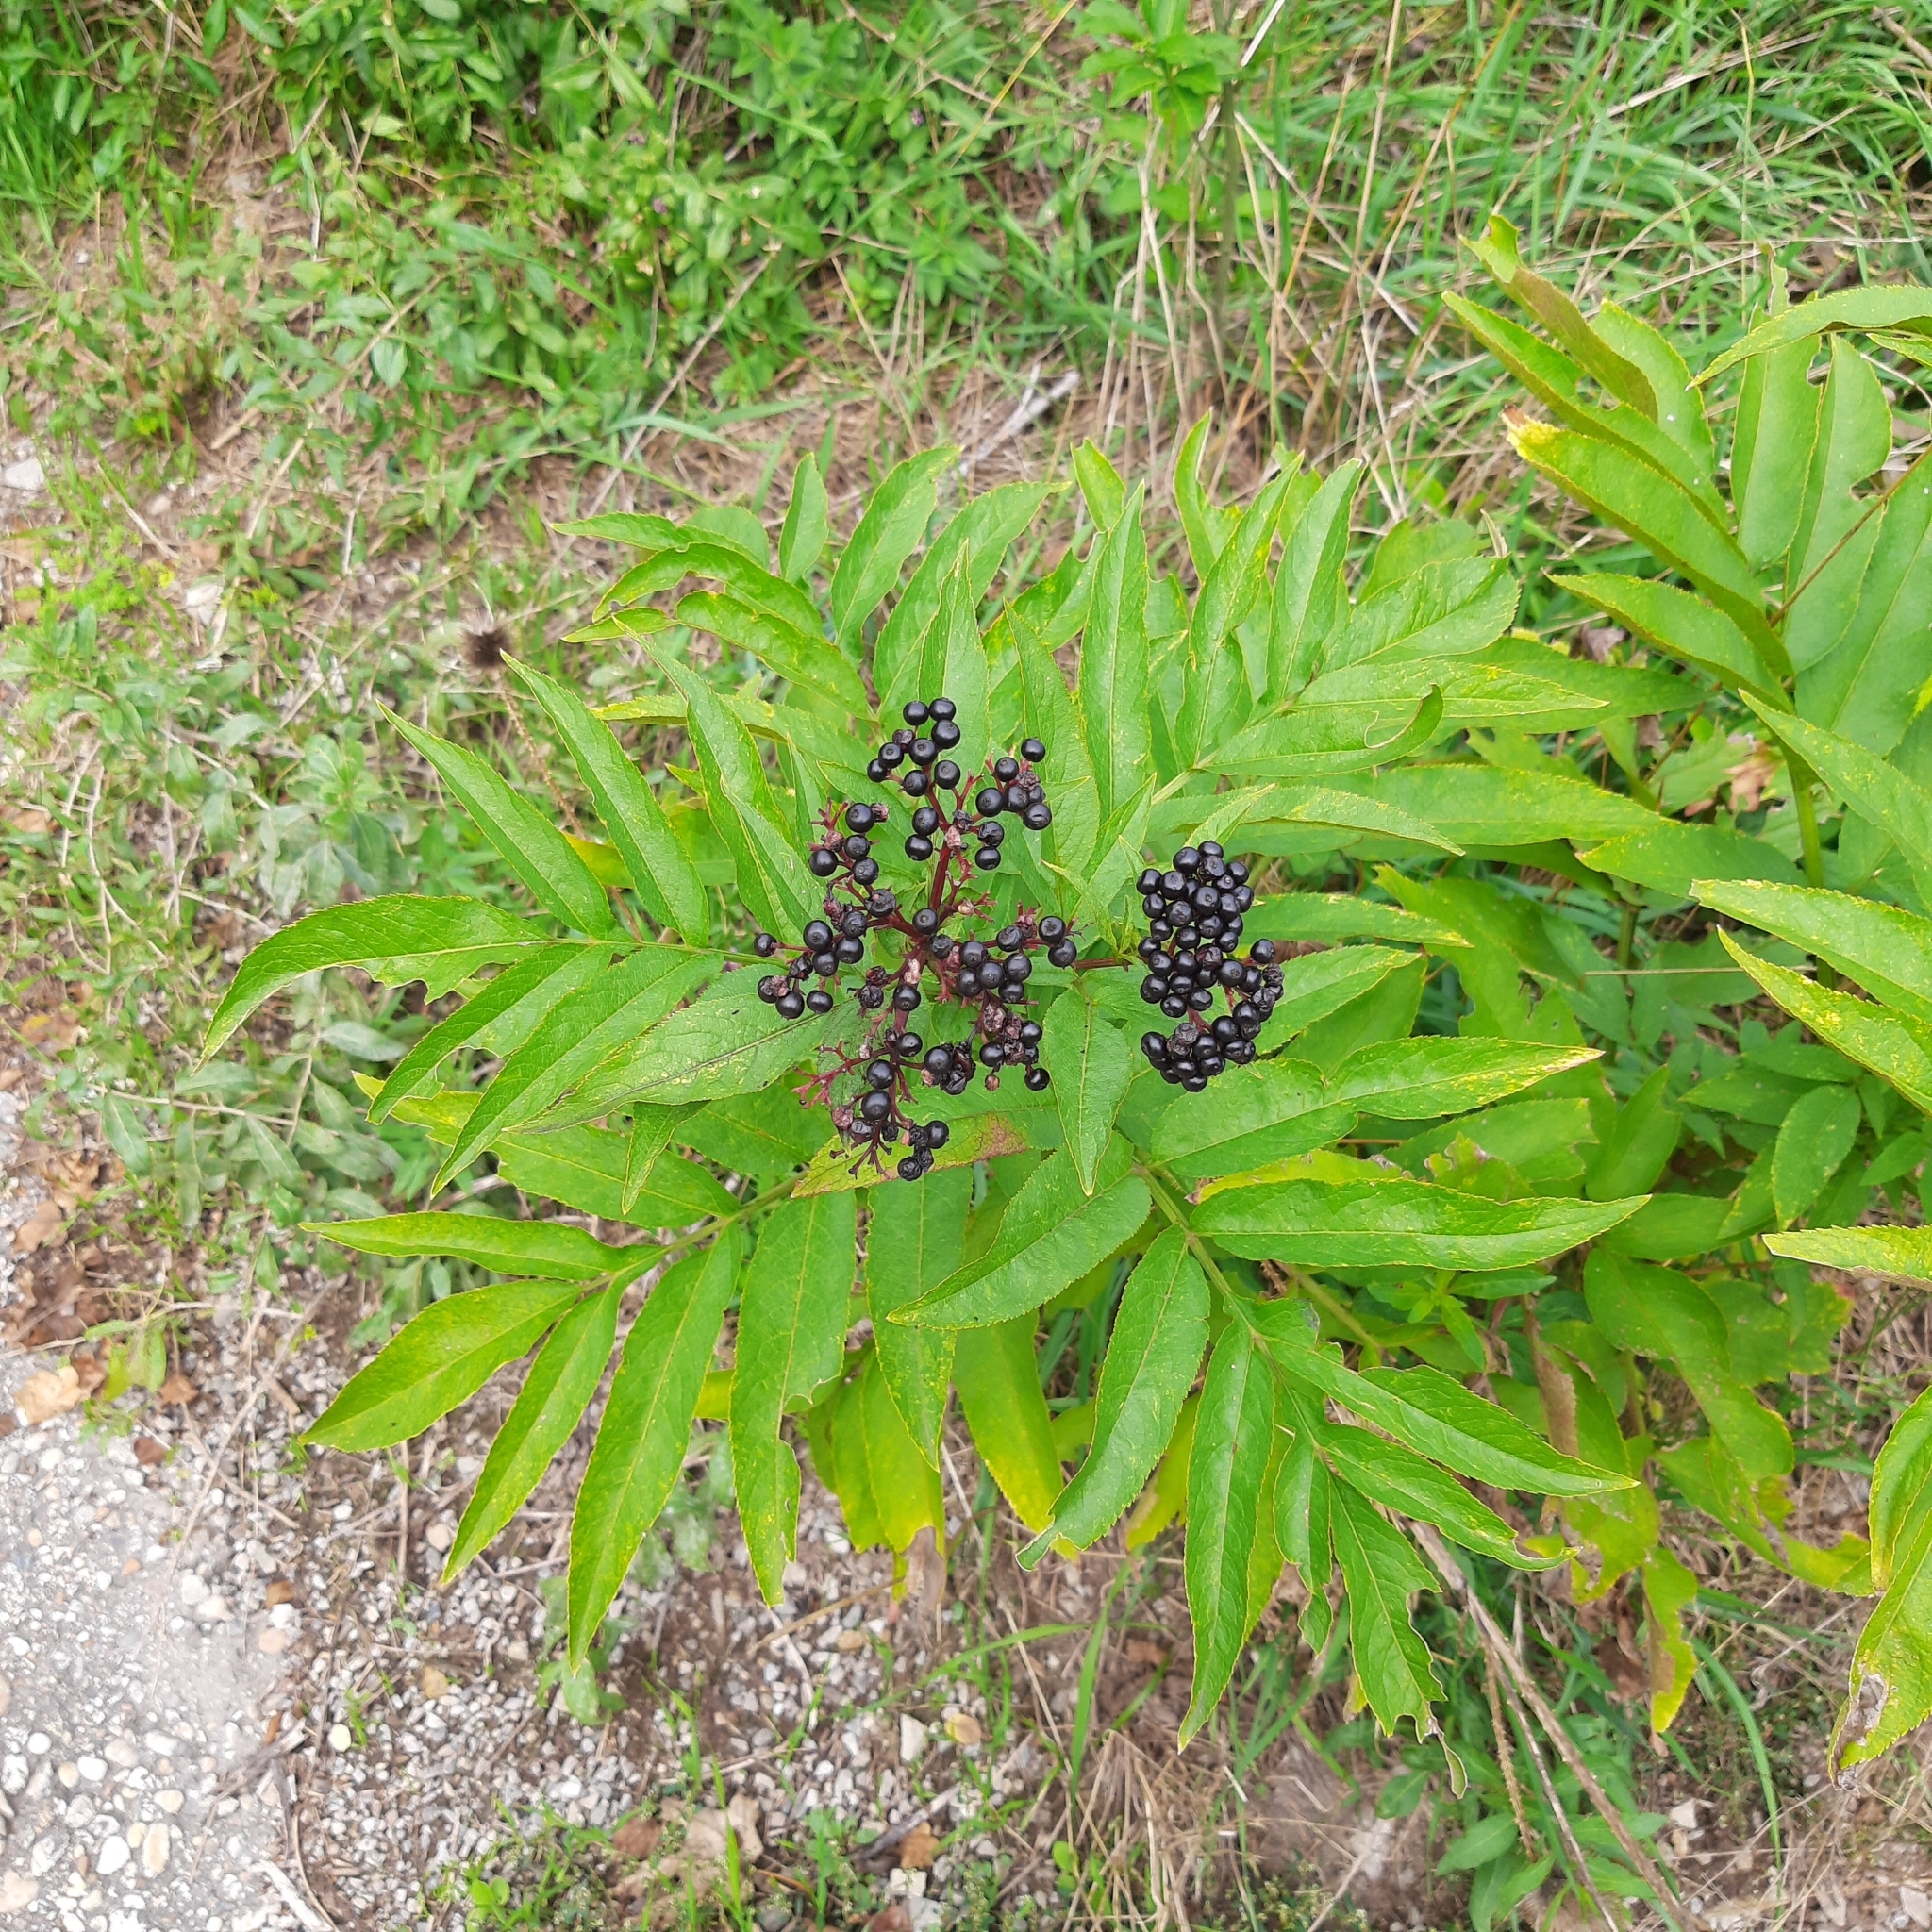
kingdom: Plantae
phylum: Tracheophyta
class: Magnoliopsida
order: Dipsacales
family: Viburnaceae
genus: Sambucus
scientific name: Sambucus ebulus
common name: Dwarf elder
